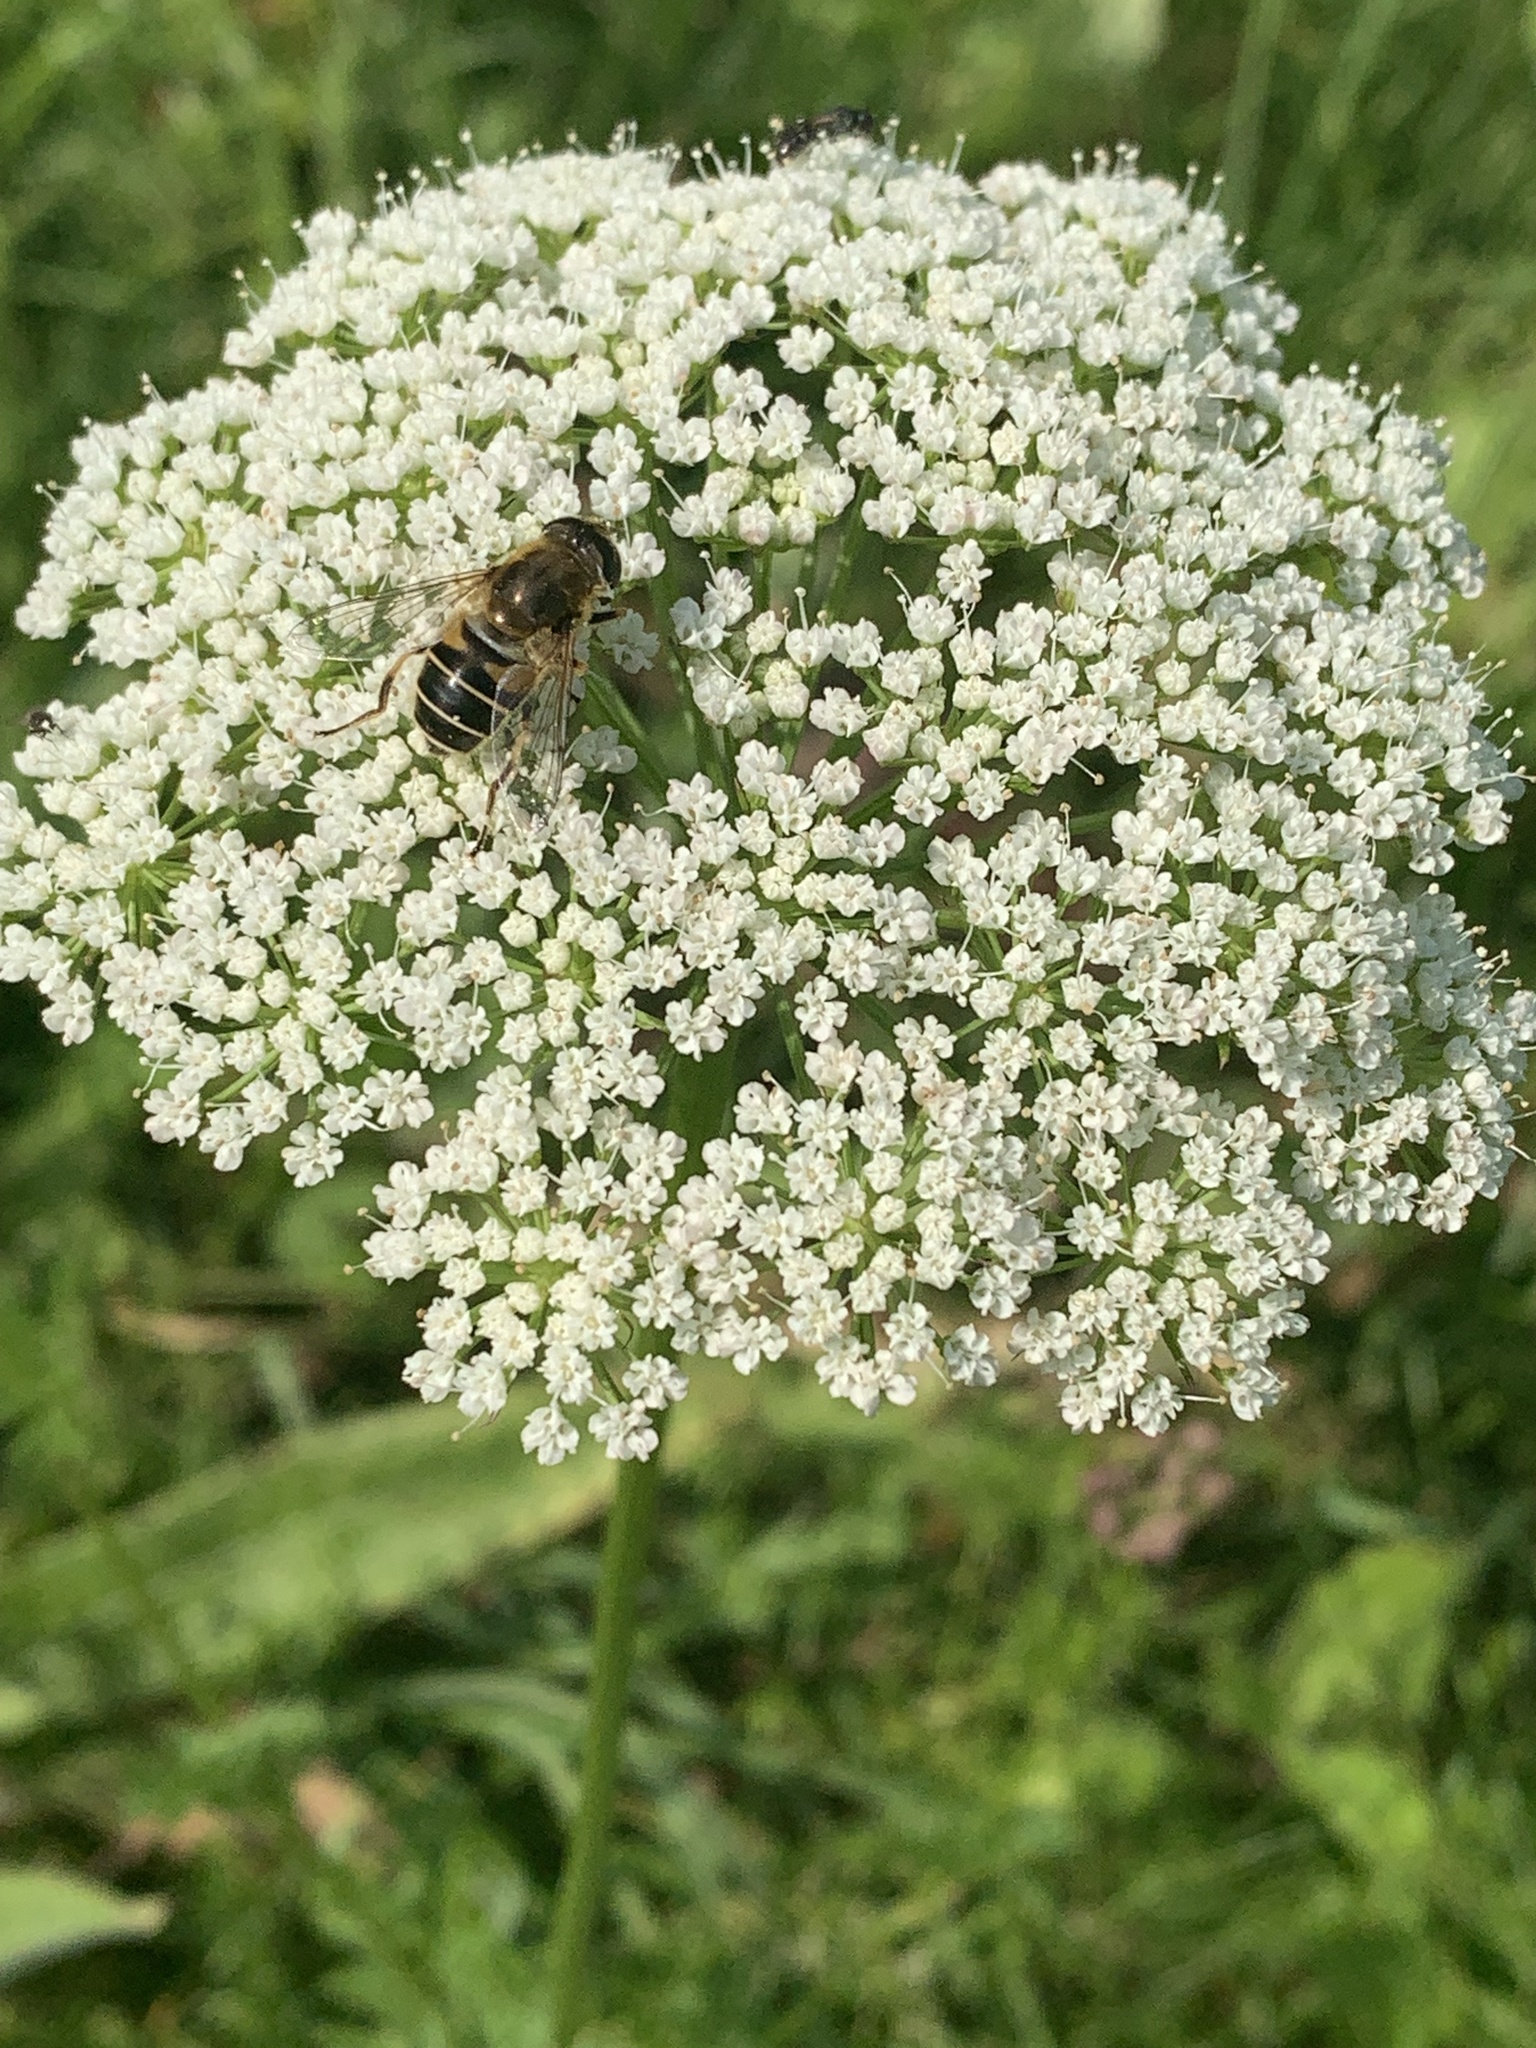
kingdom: Animalia
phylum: Arthropoda
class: Insecta
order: Diptera
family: Syrphidae
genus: Eristalis
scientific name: Eristalis nemorum
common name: Orange-spined drone fly
